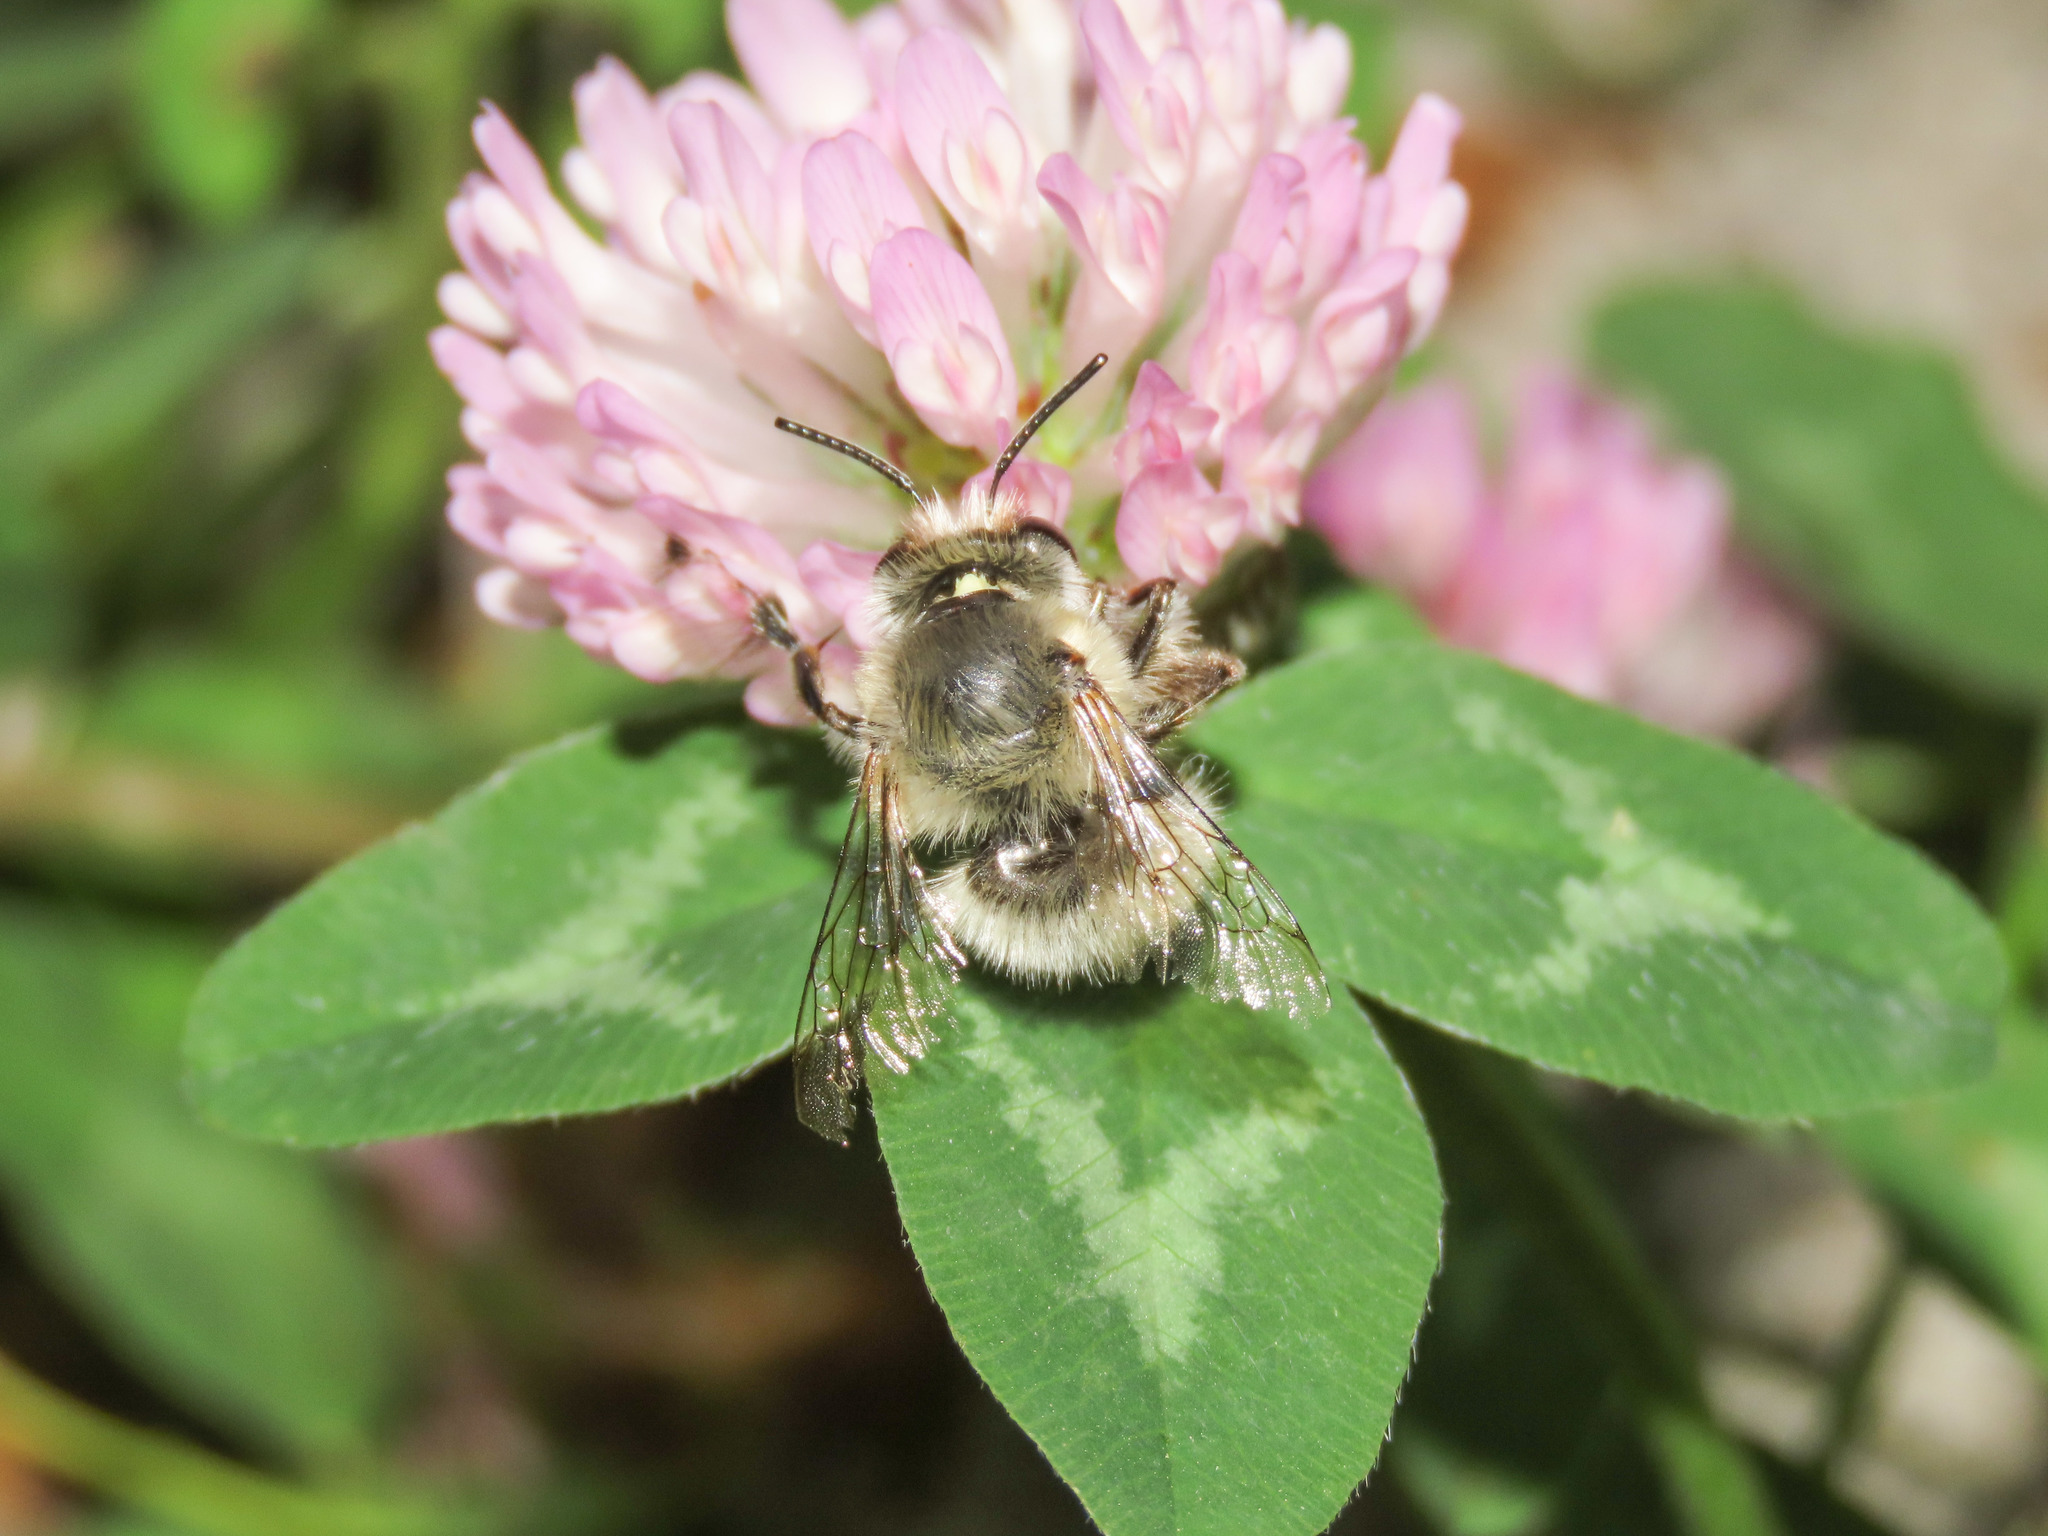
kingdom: Animalia
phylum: Arthropoda
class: Insecta
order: Hymenoptera
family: Apidae
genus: Anthophora
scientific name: Anthophora plumipes
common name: Hairy-footed flower bee
